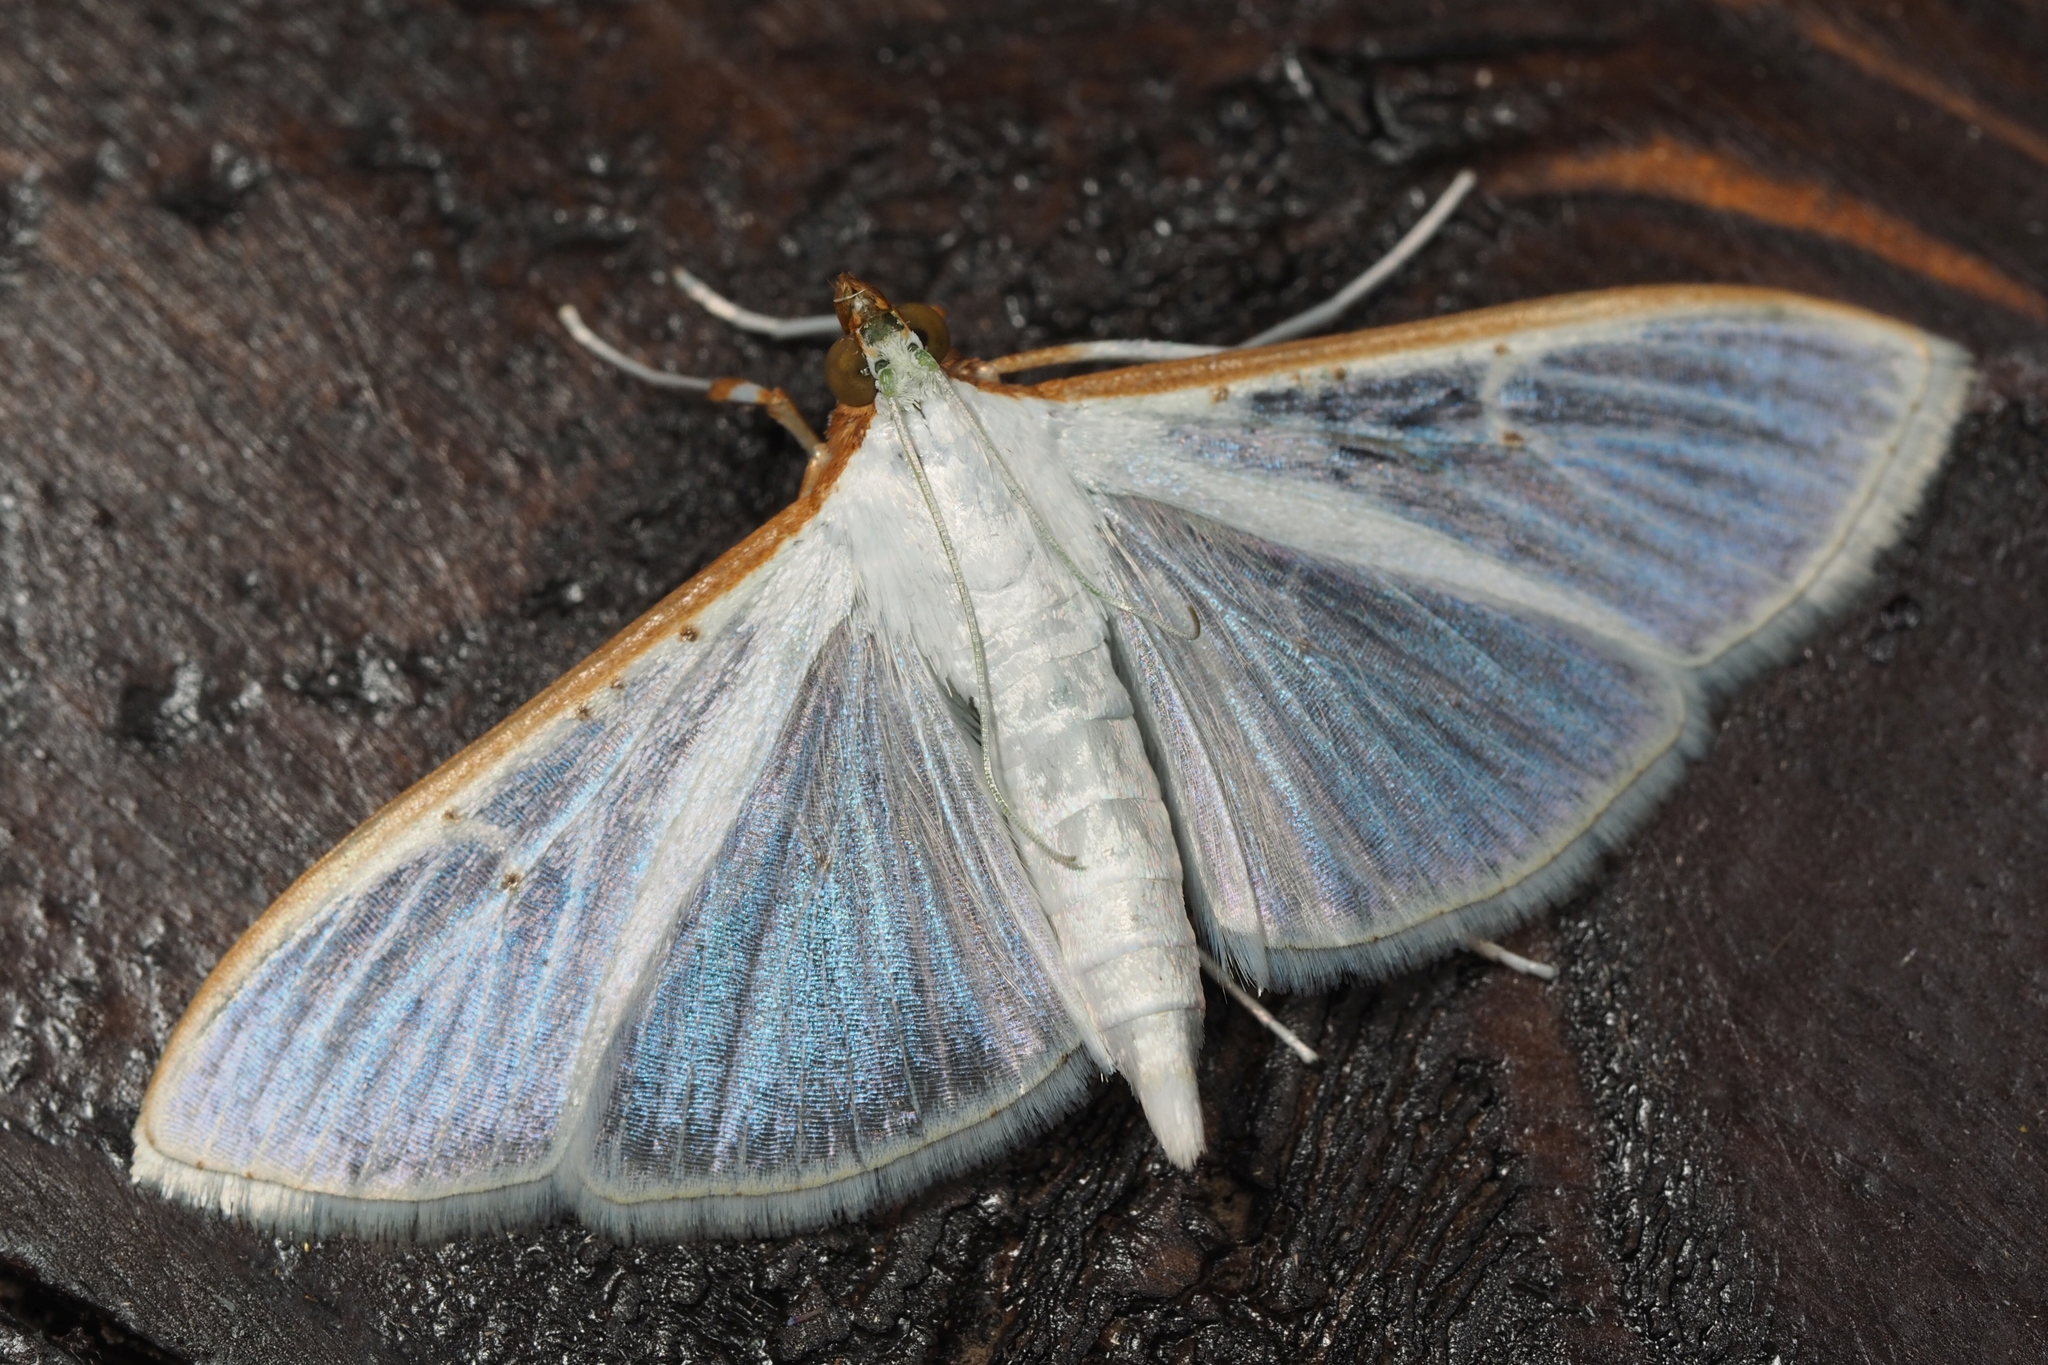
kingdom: Animalia
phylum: Arthropoda
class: Insecta
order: Lepidoptera
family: Crambidae
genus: Palpita
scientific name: Palpita vitrealis
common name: Olive-tree pearl
